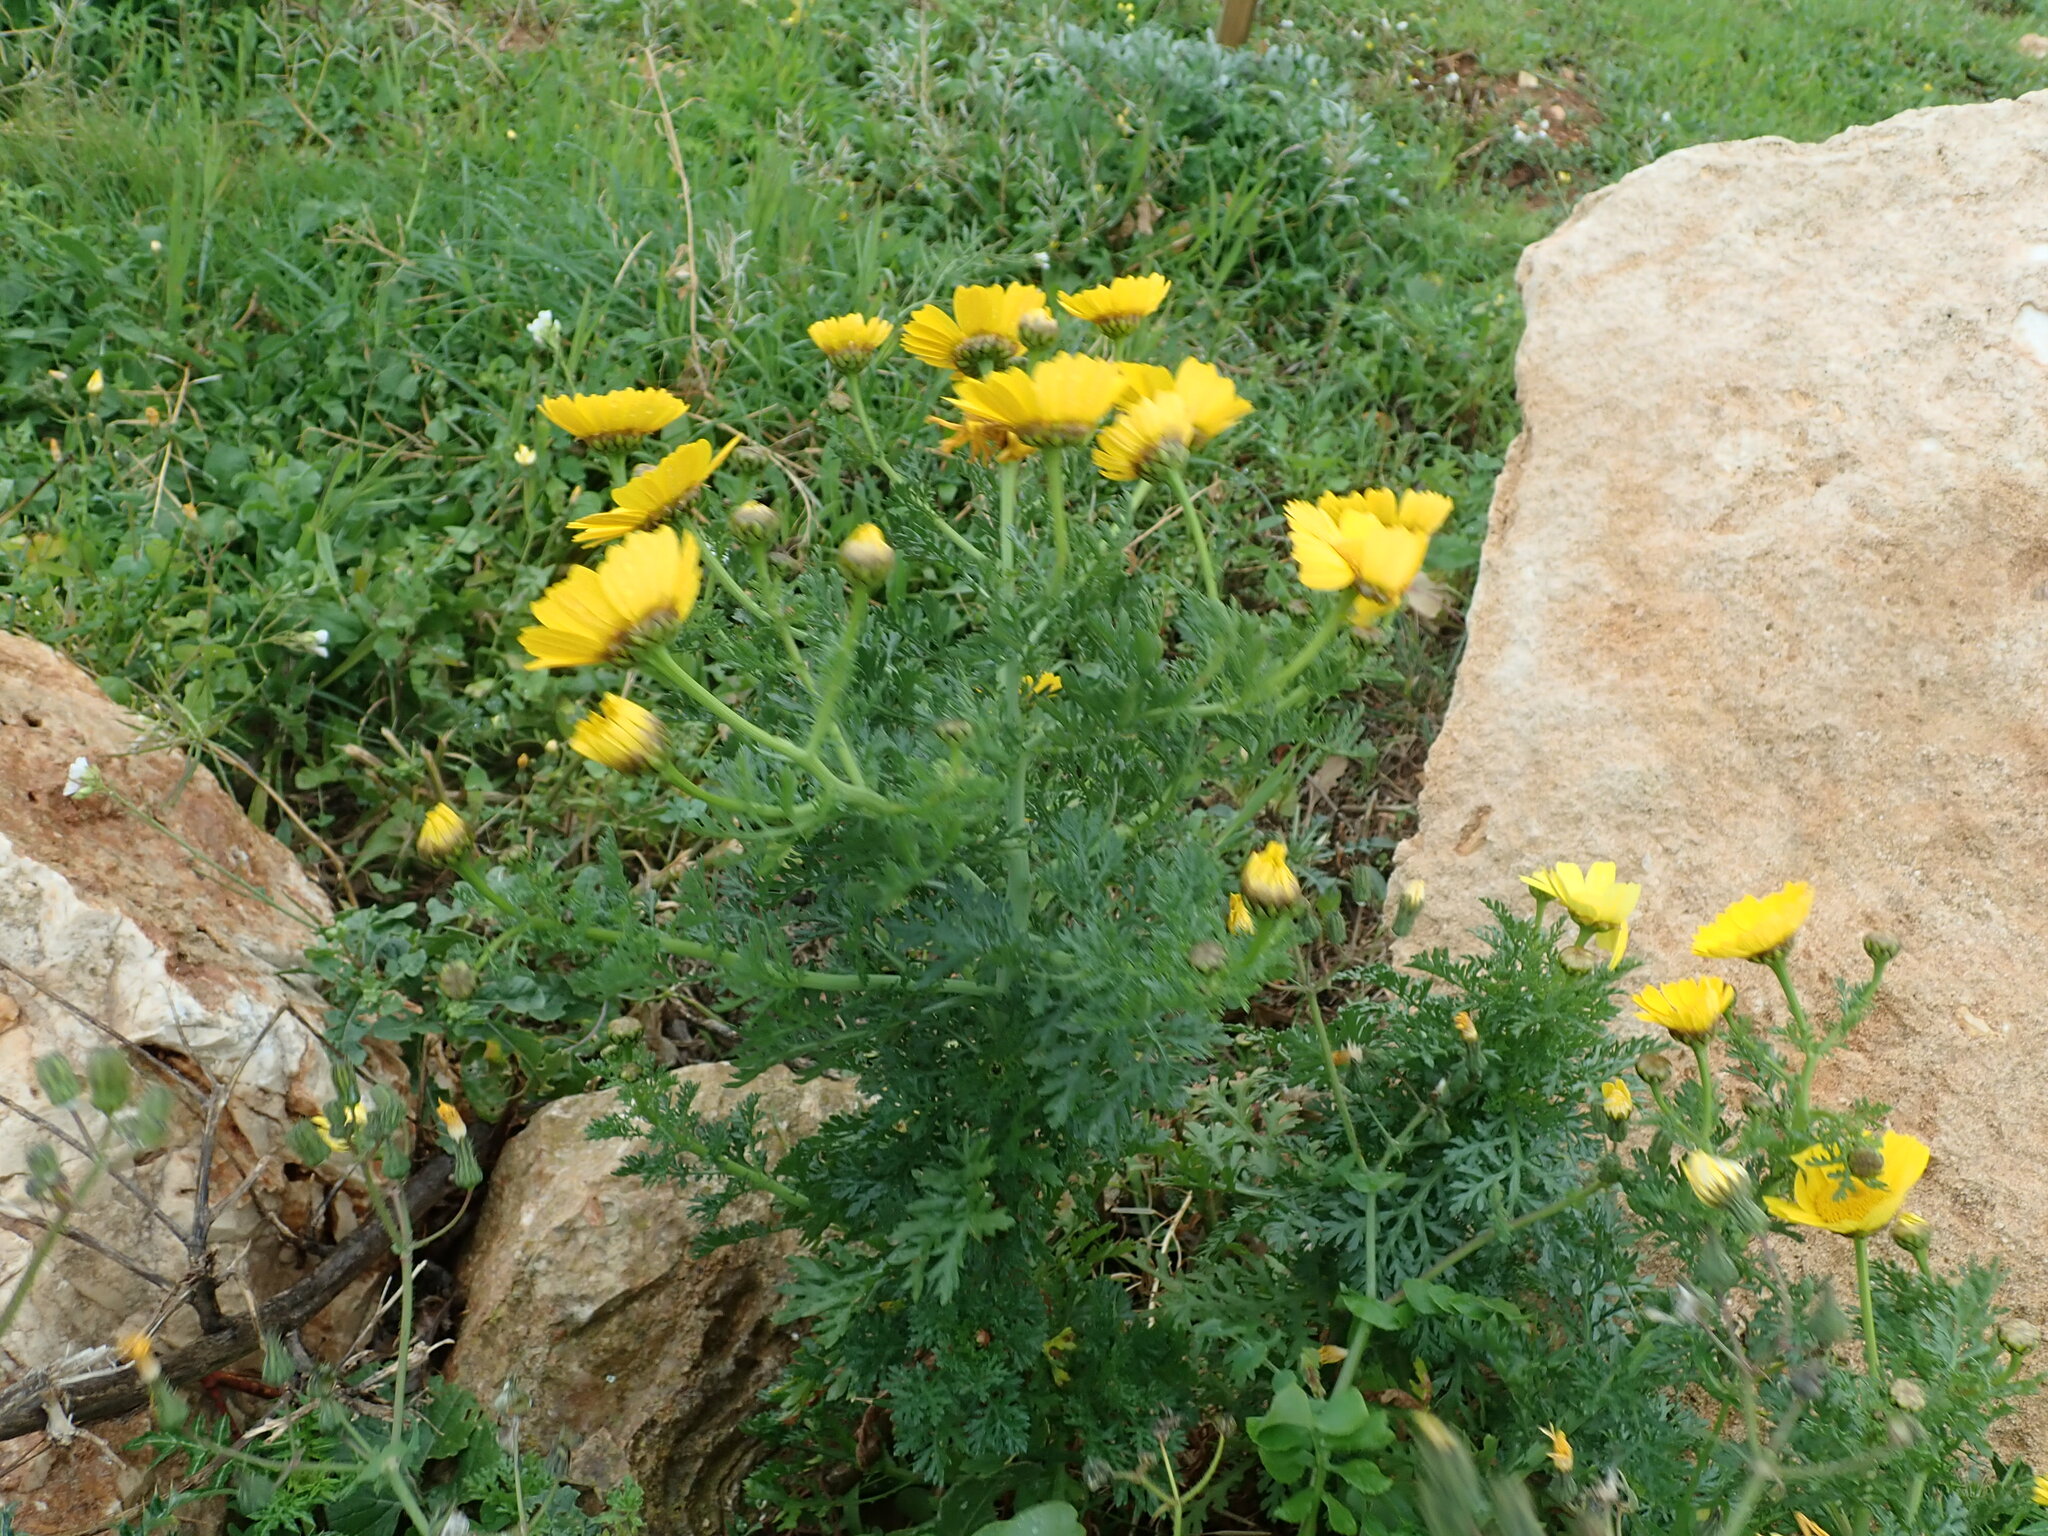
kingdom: Plantae
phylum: Tracheophyta
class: Magnoliopsida
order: Asterales
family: Asteraceae
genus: Glebionis
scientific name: Glebionis coronaria
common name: Crowndaisy
